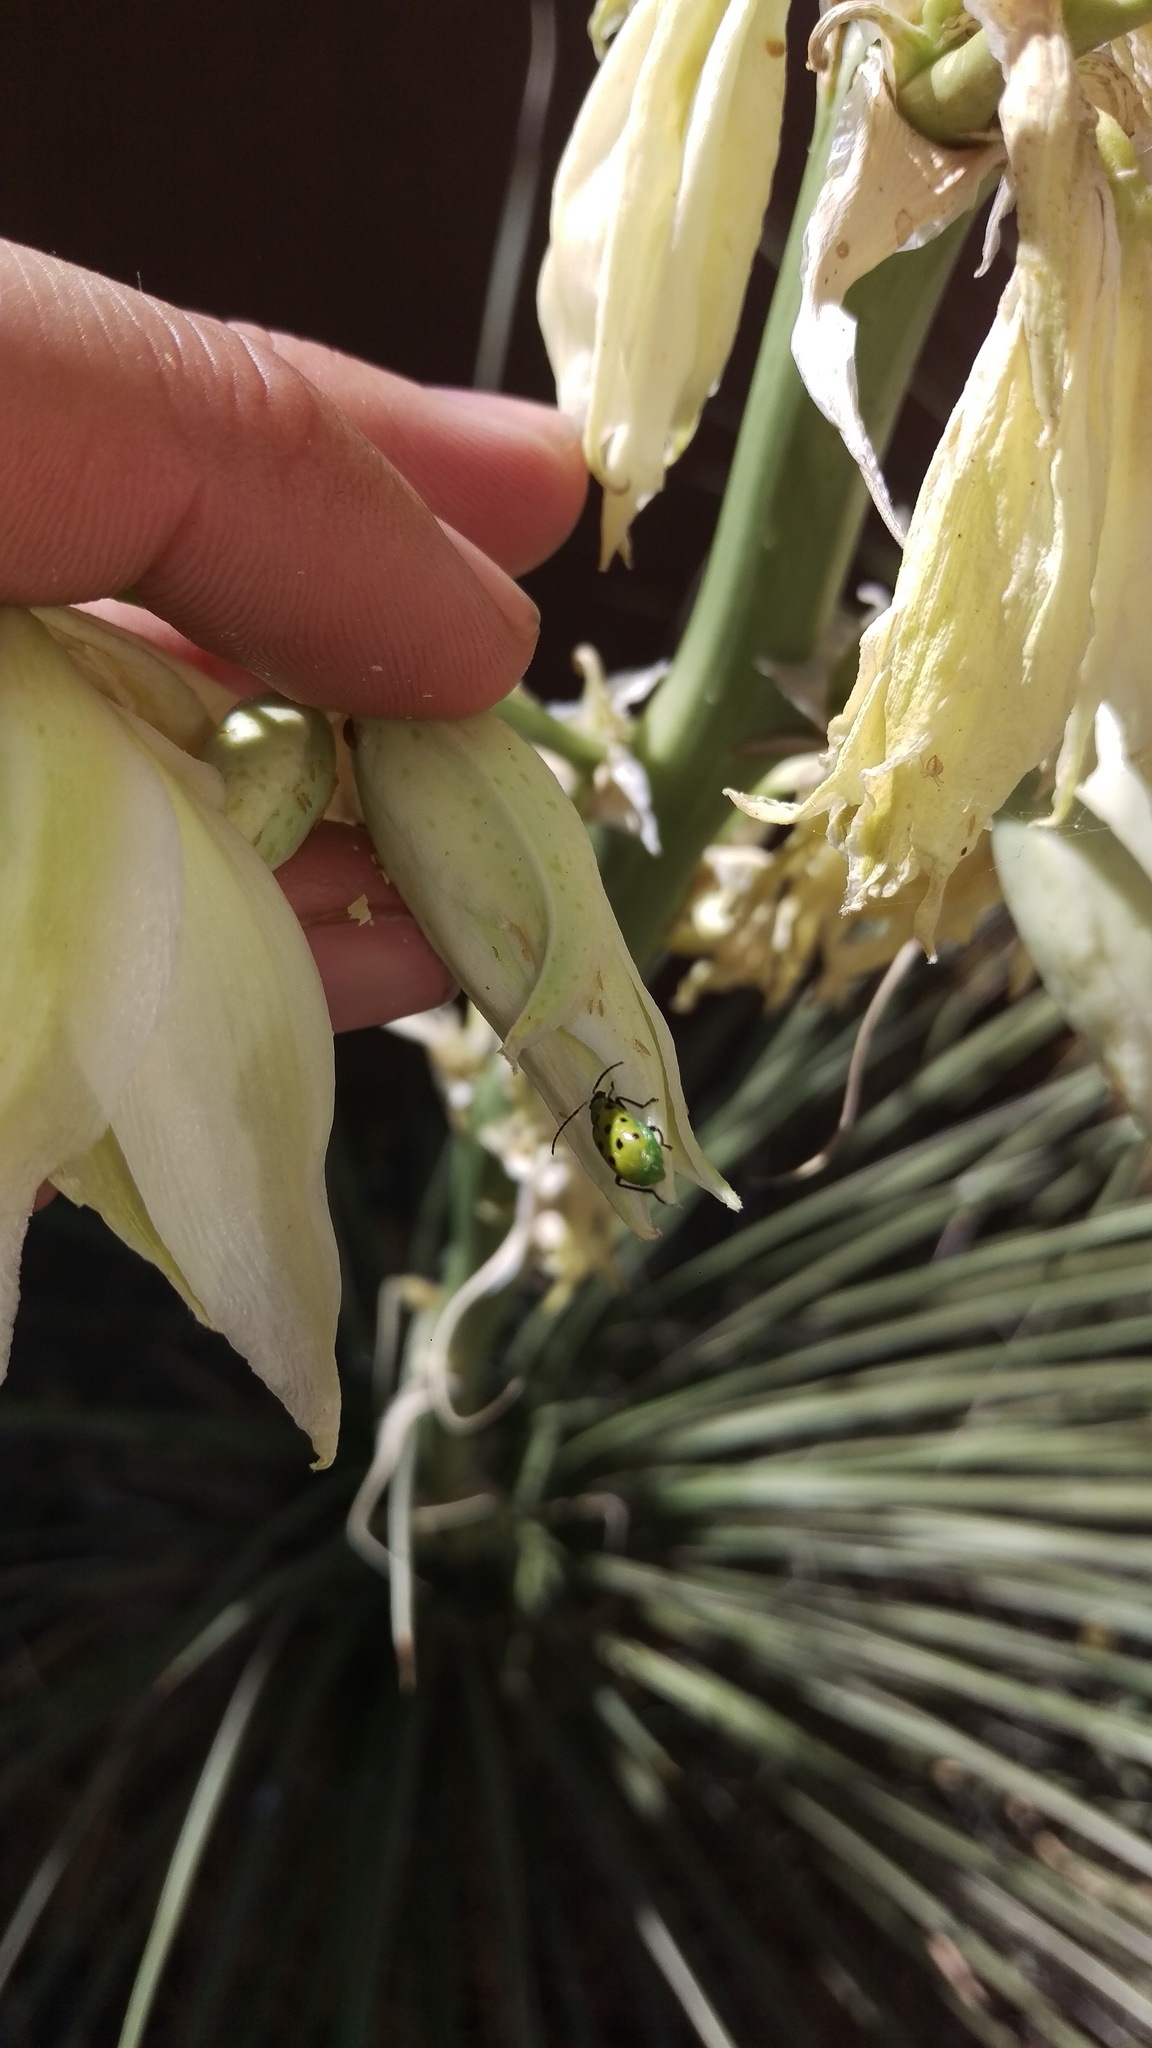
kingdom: Animalia
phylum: Arthropoda
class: Insecta
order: Coleoptera
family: Chrysomelidae
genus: Diabrotica
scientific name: Diabrotica undecimpunctata
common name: Spotted cucumber beetle
